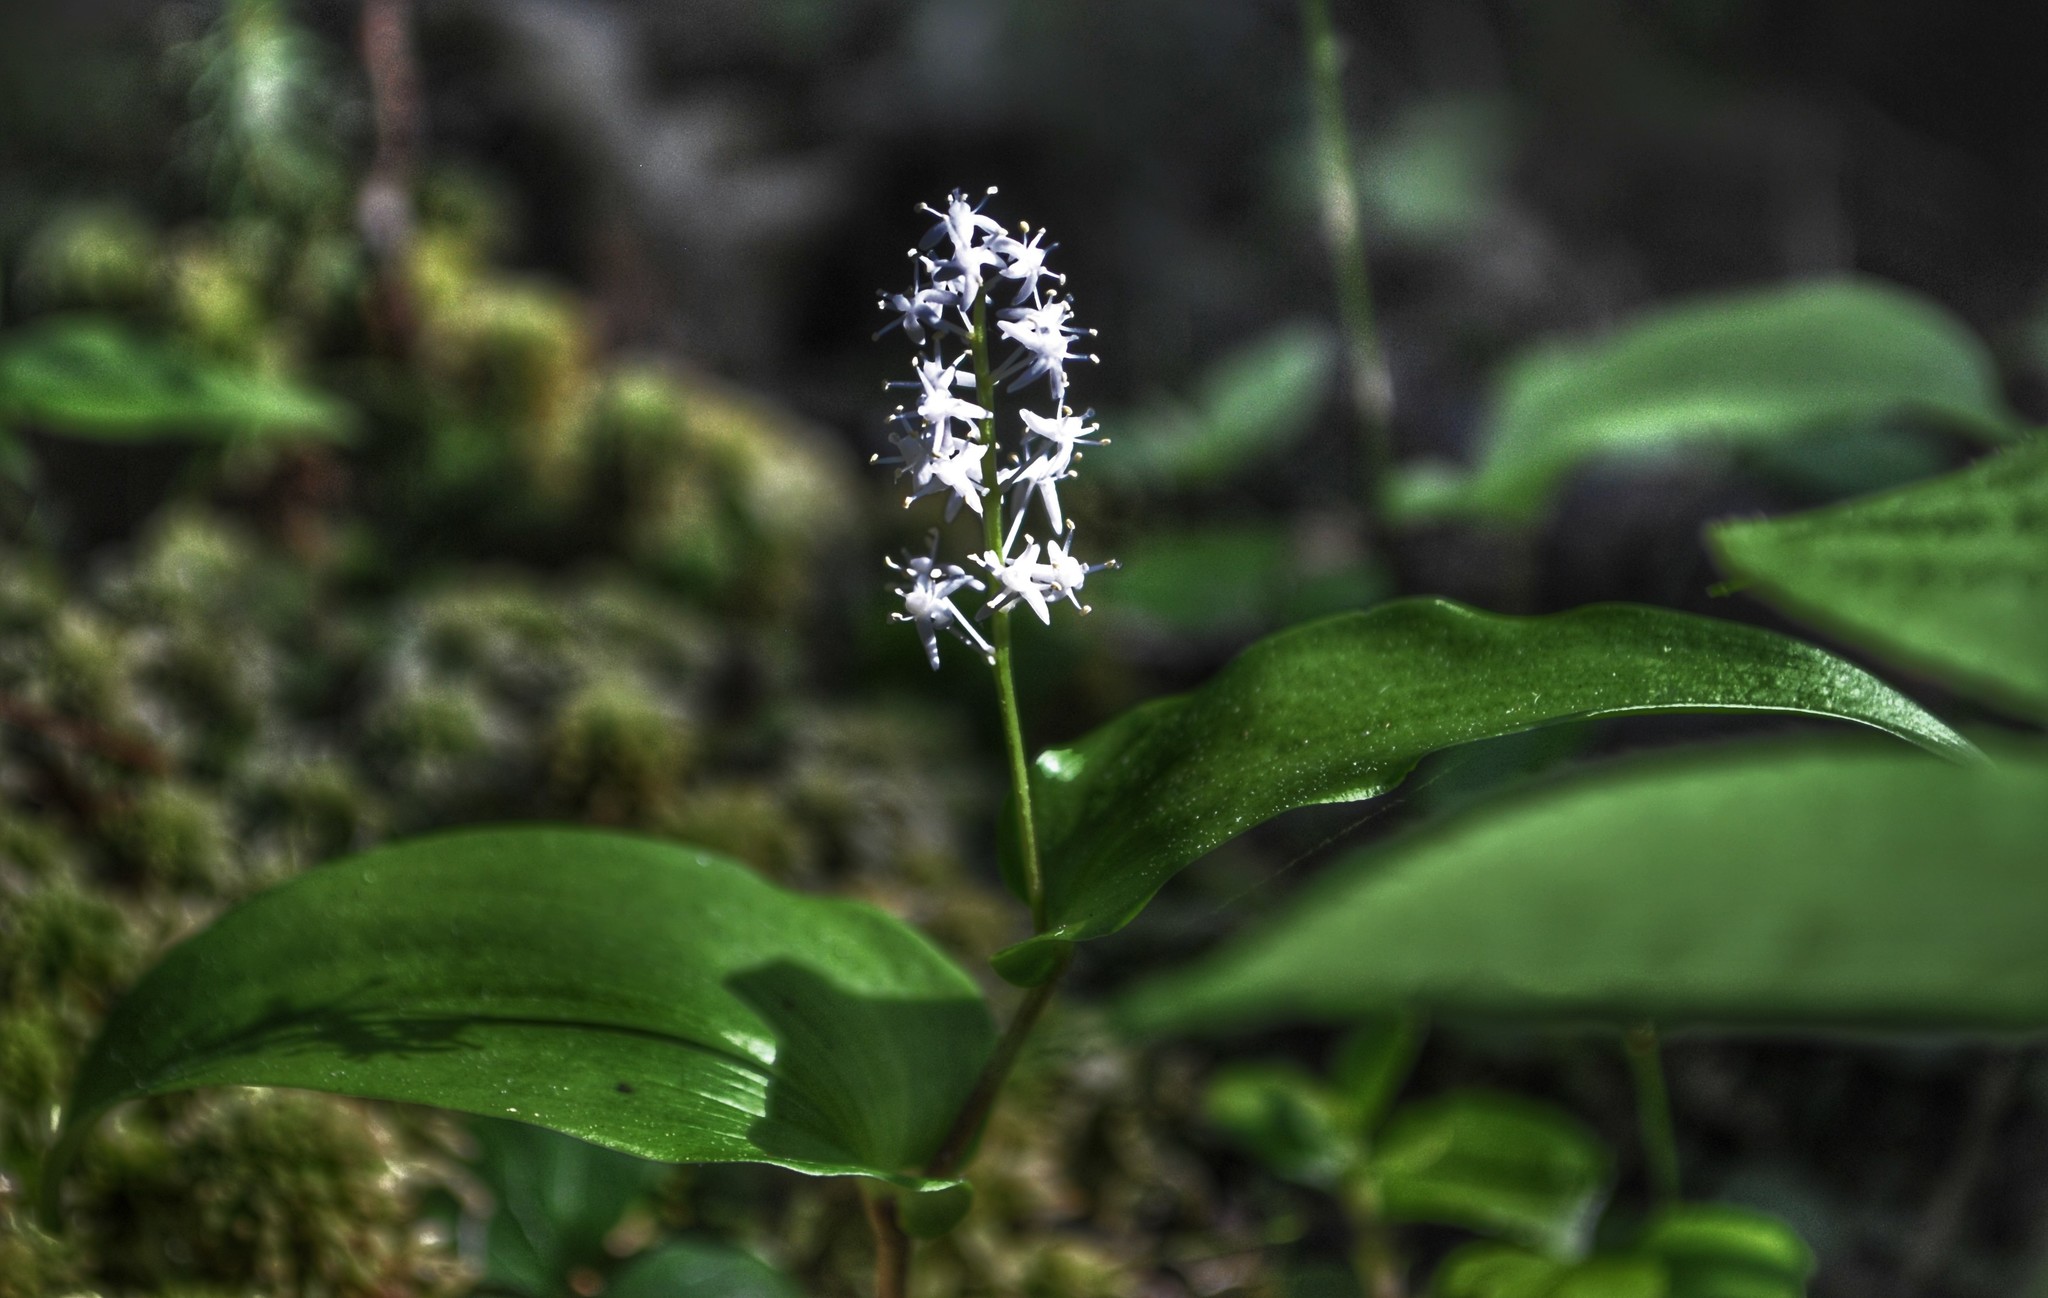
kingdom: Plantae
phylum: Tracheophyta
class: Liliopsida
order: Asparagales
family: Asparagaceae
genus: Maianthemum
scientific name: Maianthemum canadense
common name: False lily-of-the-valley
